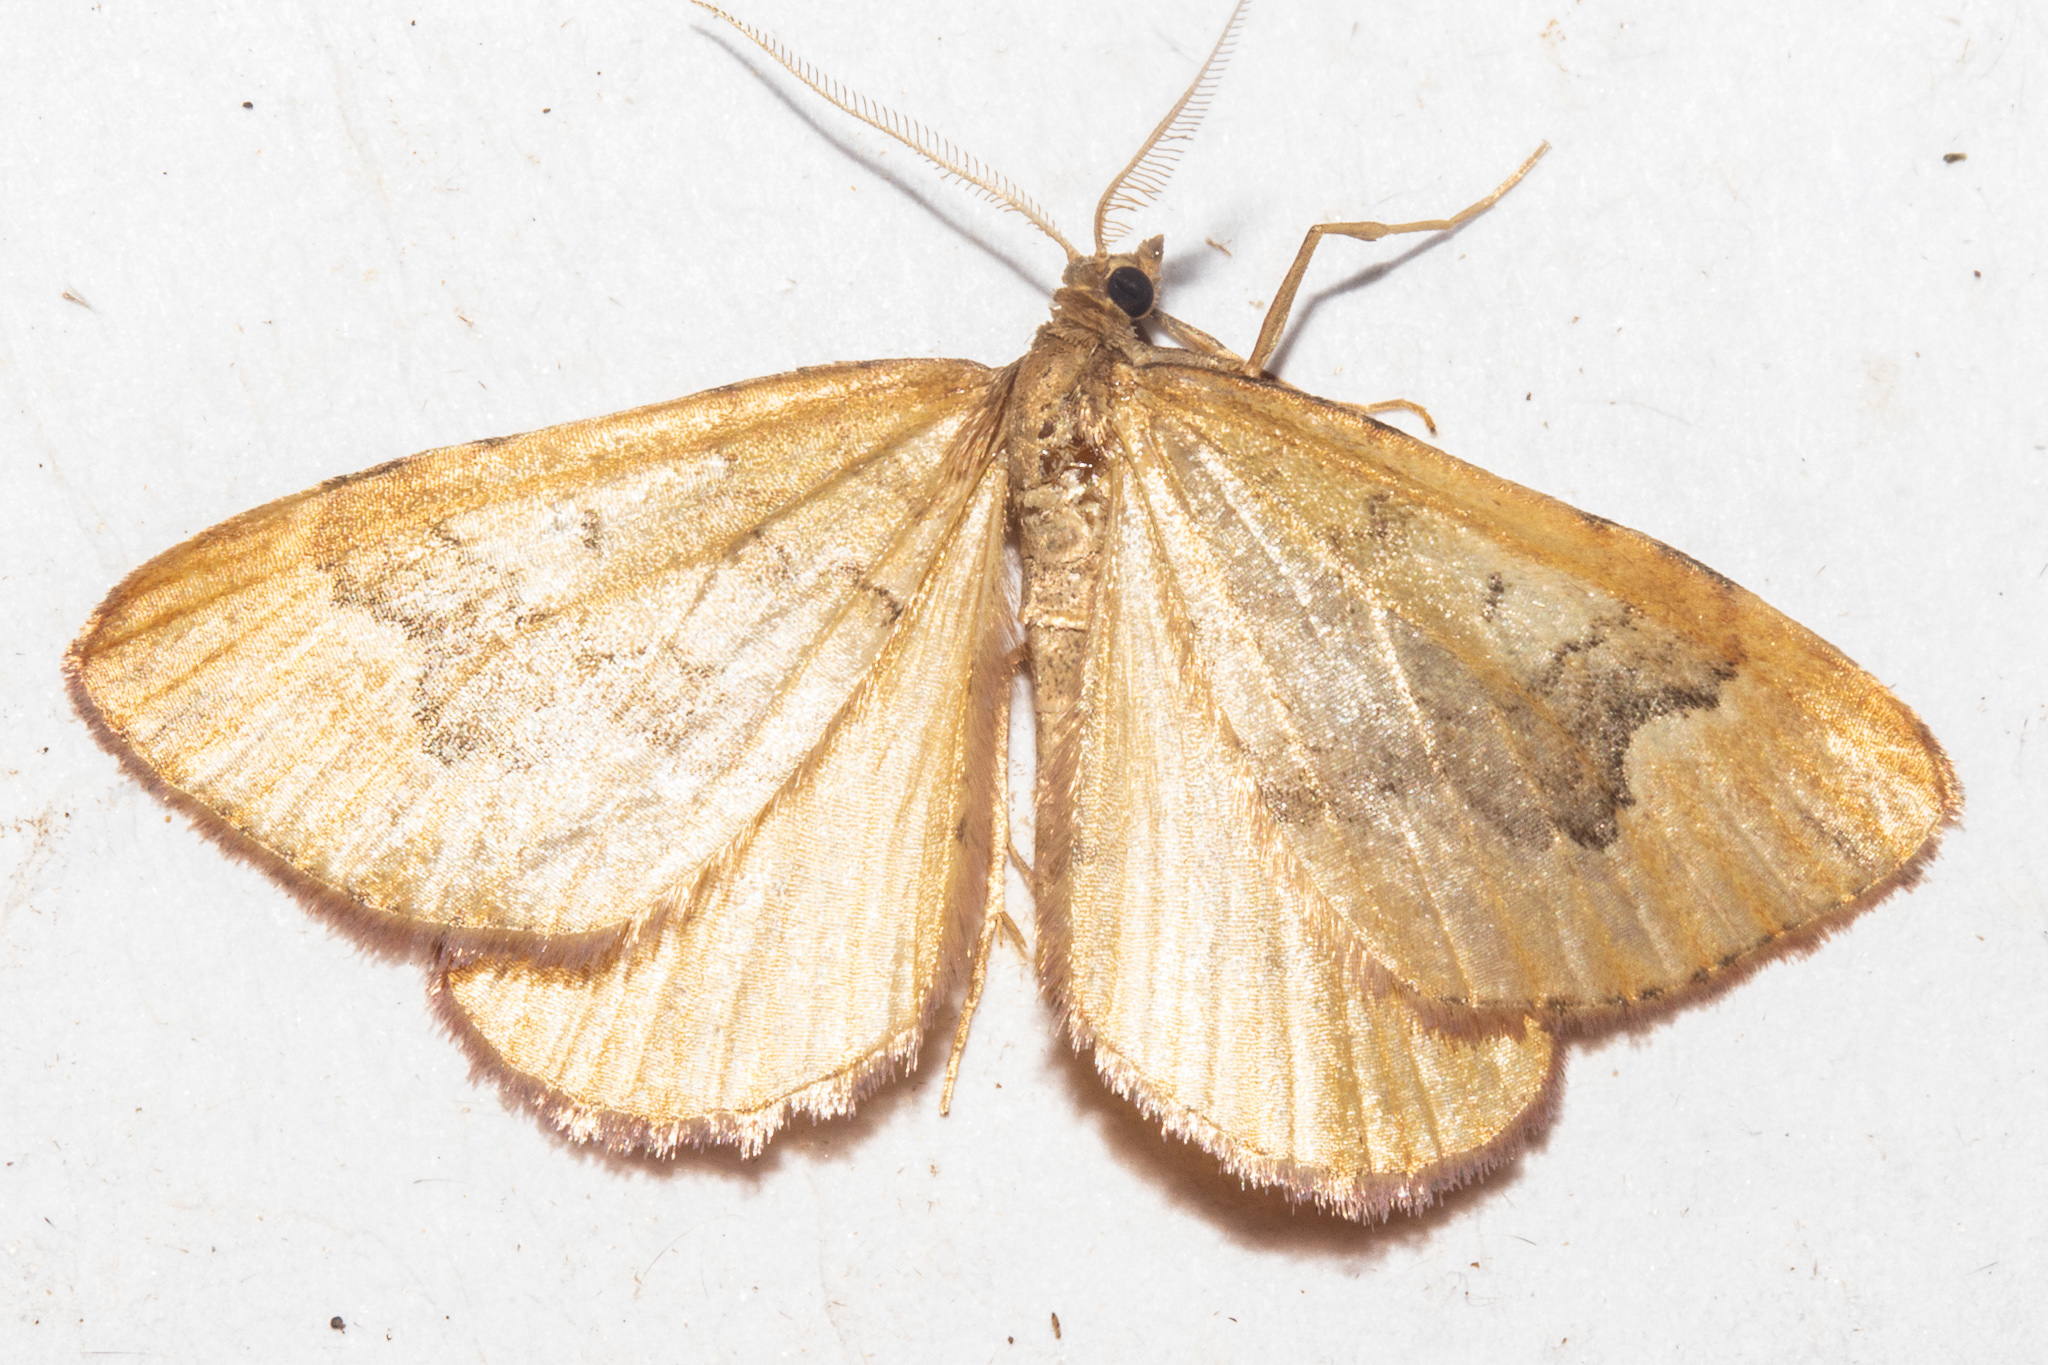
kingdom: Animalia
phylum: Arthropoda
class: Insecta
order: Lepidoptera
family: Geometridae
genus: Asaphodes
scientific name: Asaphodes helias
